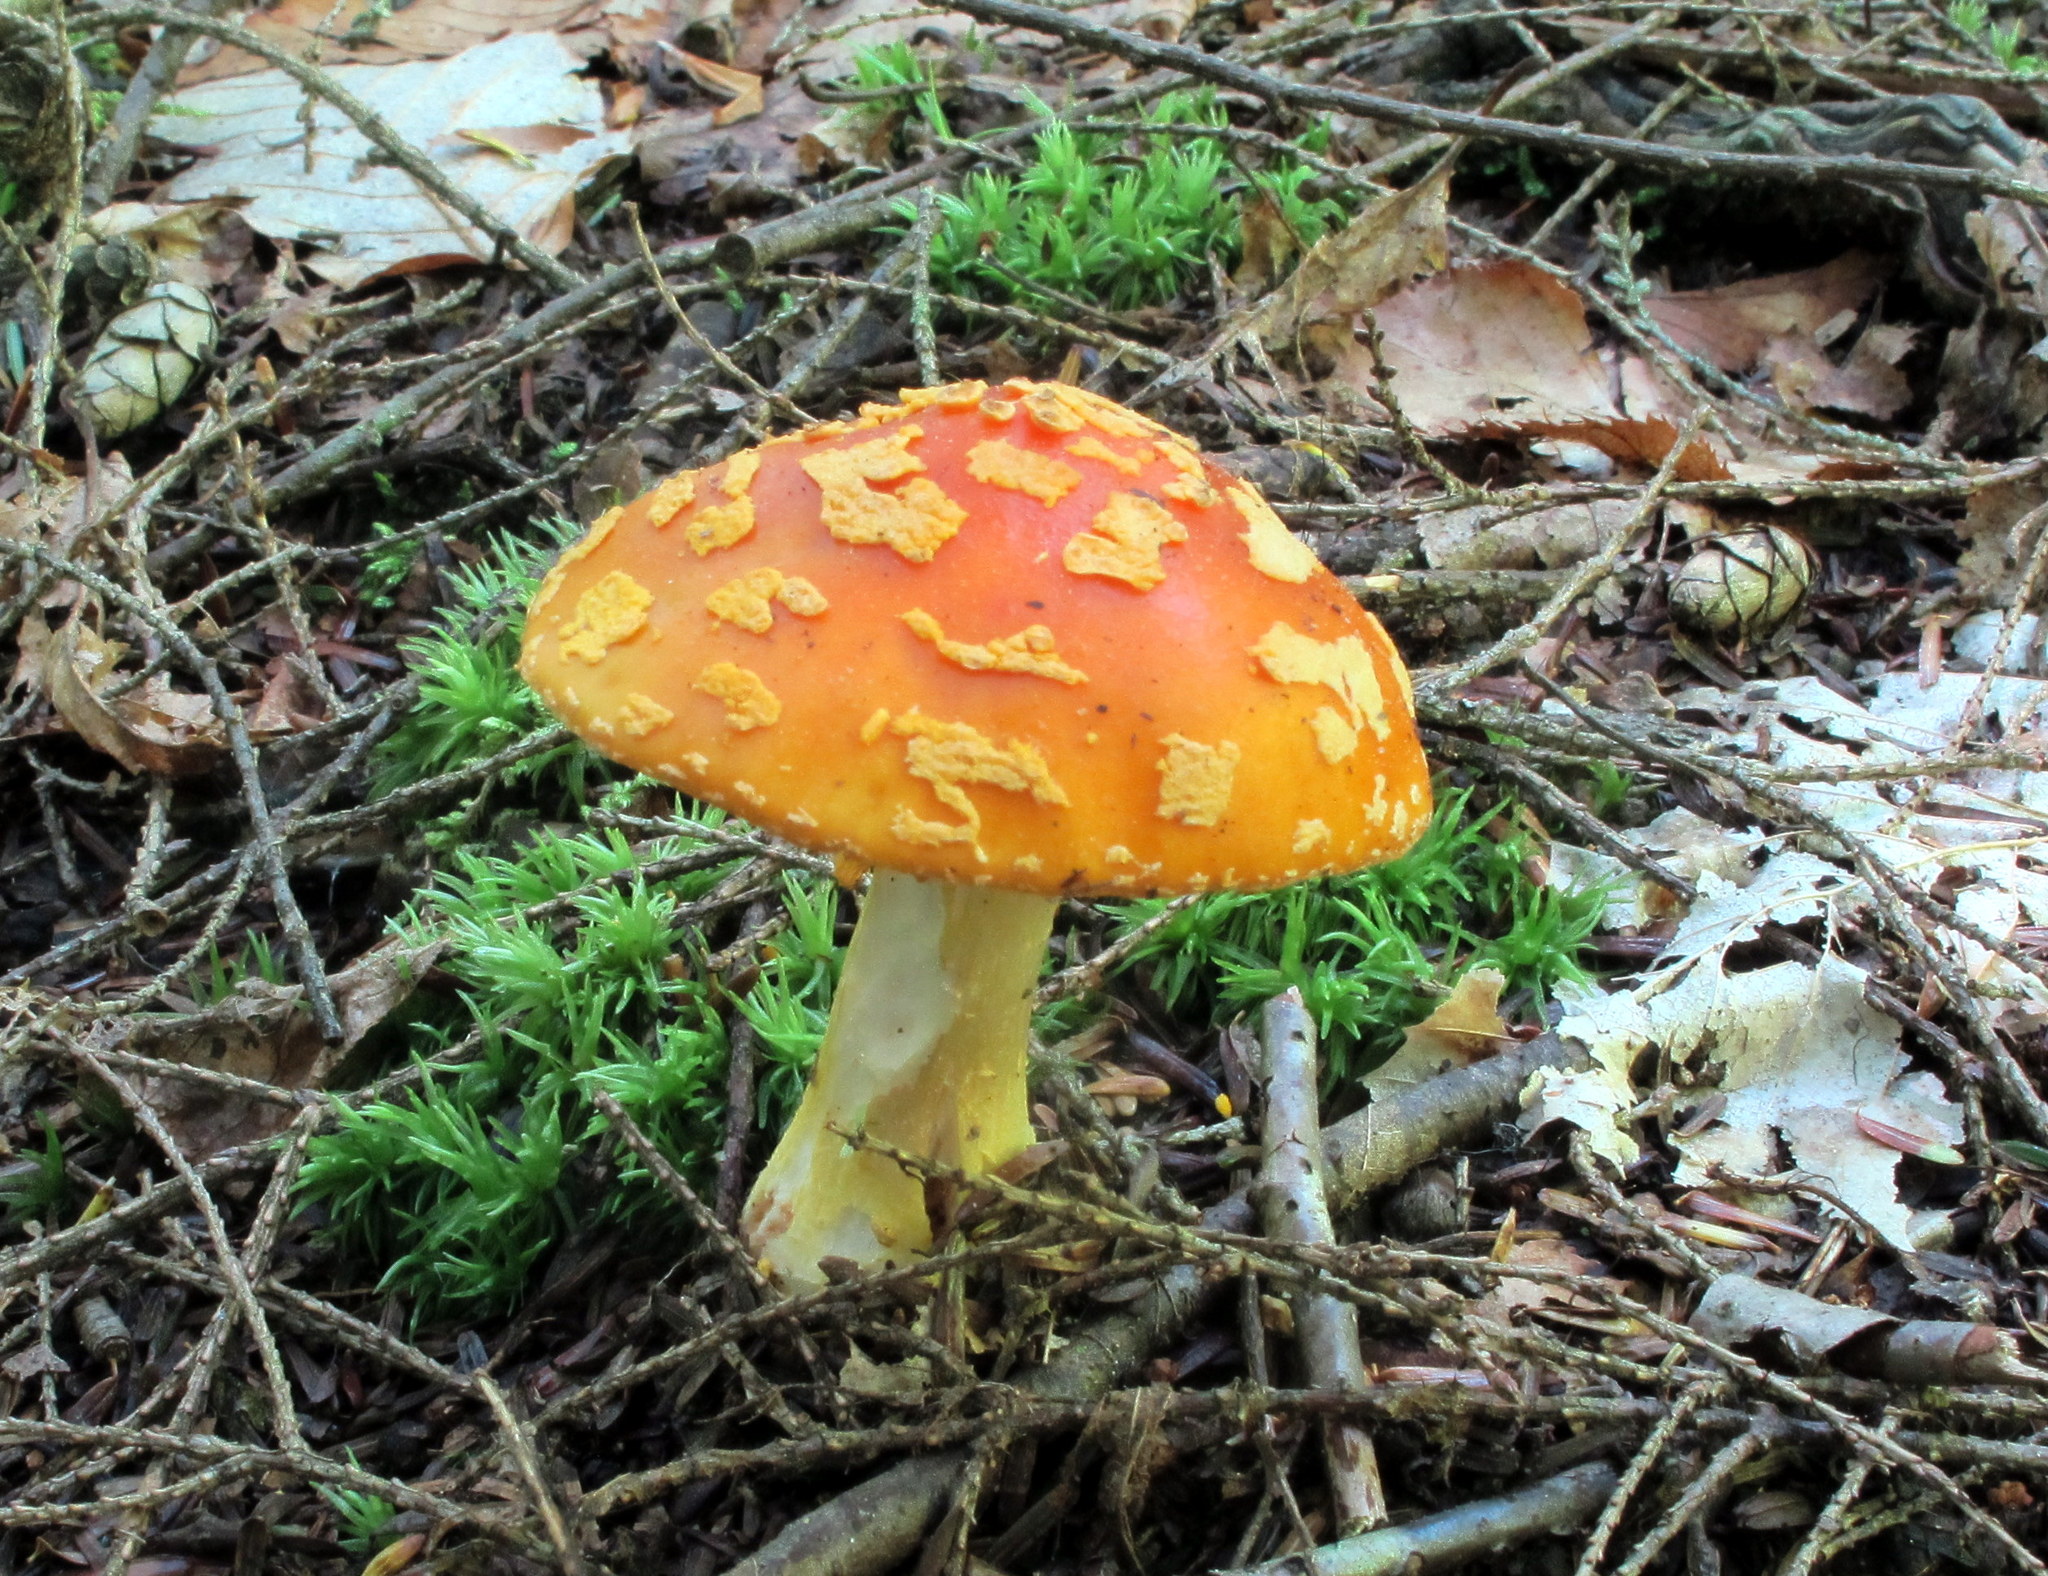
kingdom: Fungi
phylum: Basidiomycota
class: Agaricomycetes
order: Agaricales
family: Amanitaceae
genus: Amanita
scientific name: Amanita flavoconia
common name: Yellow patches
